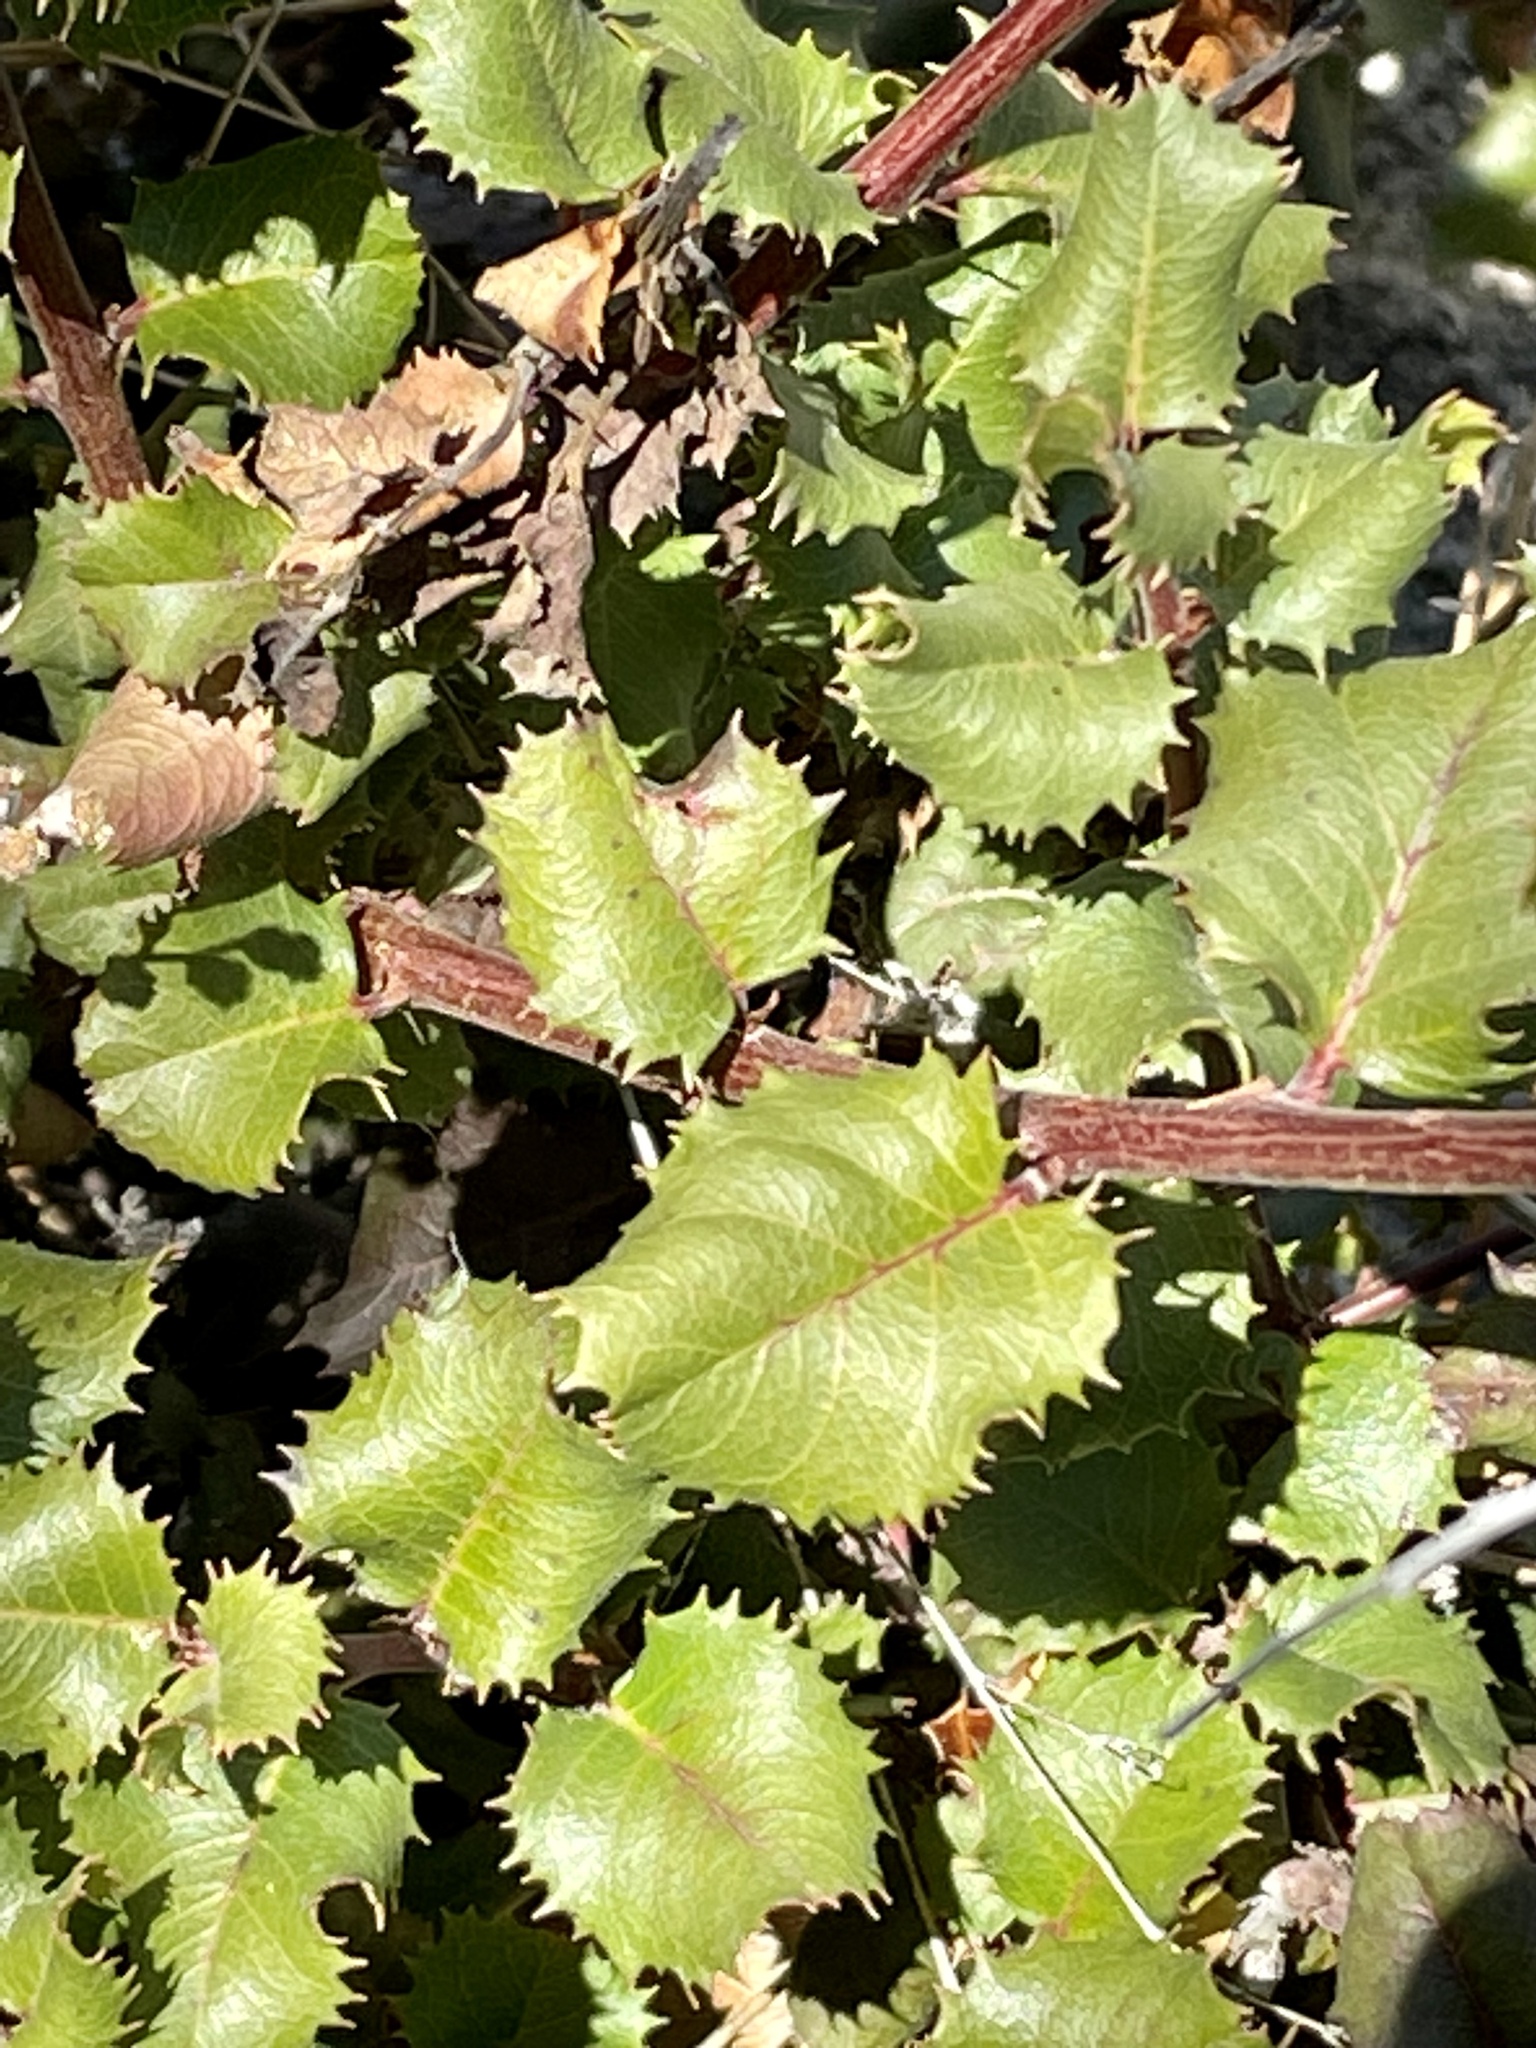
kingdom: Plantae
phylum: Tracheophyta
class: Magnoliopsida
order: Rosales
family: Rhamnaceae
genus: Endotropis
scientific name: Endotropis crocea
